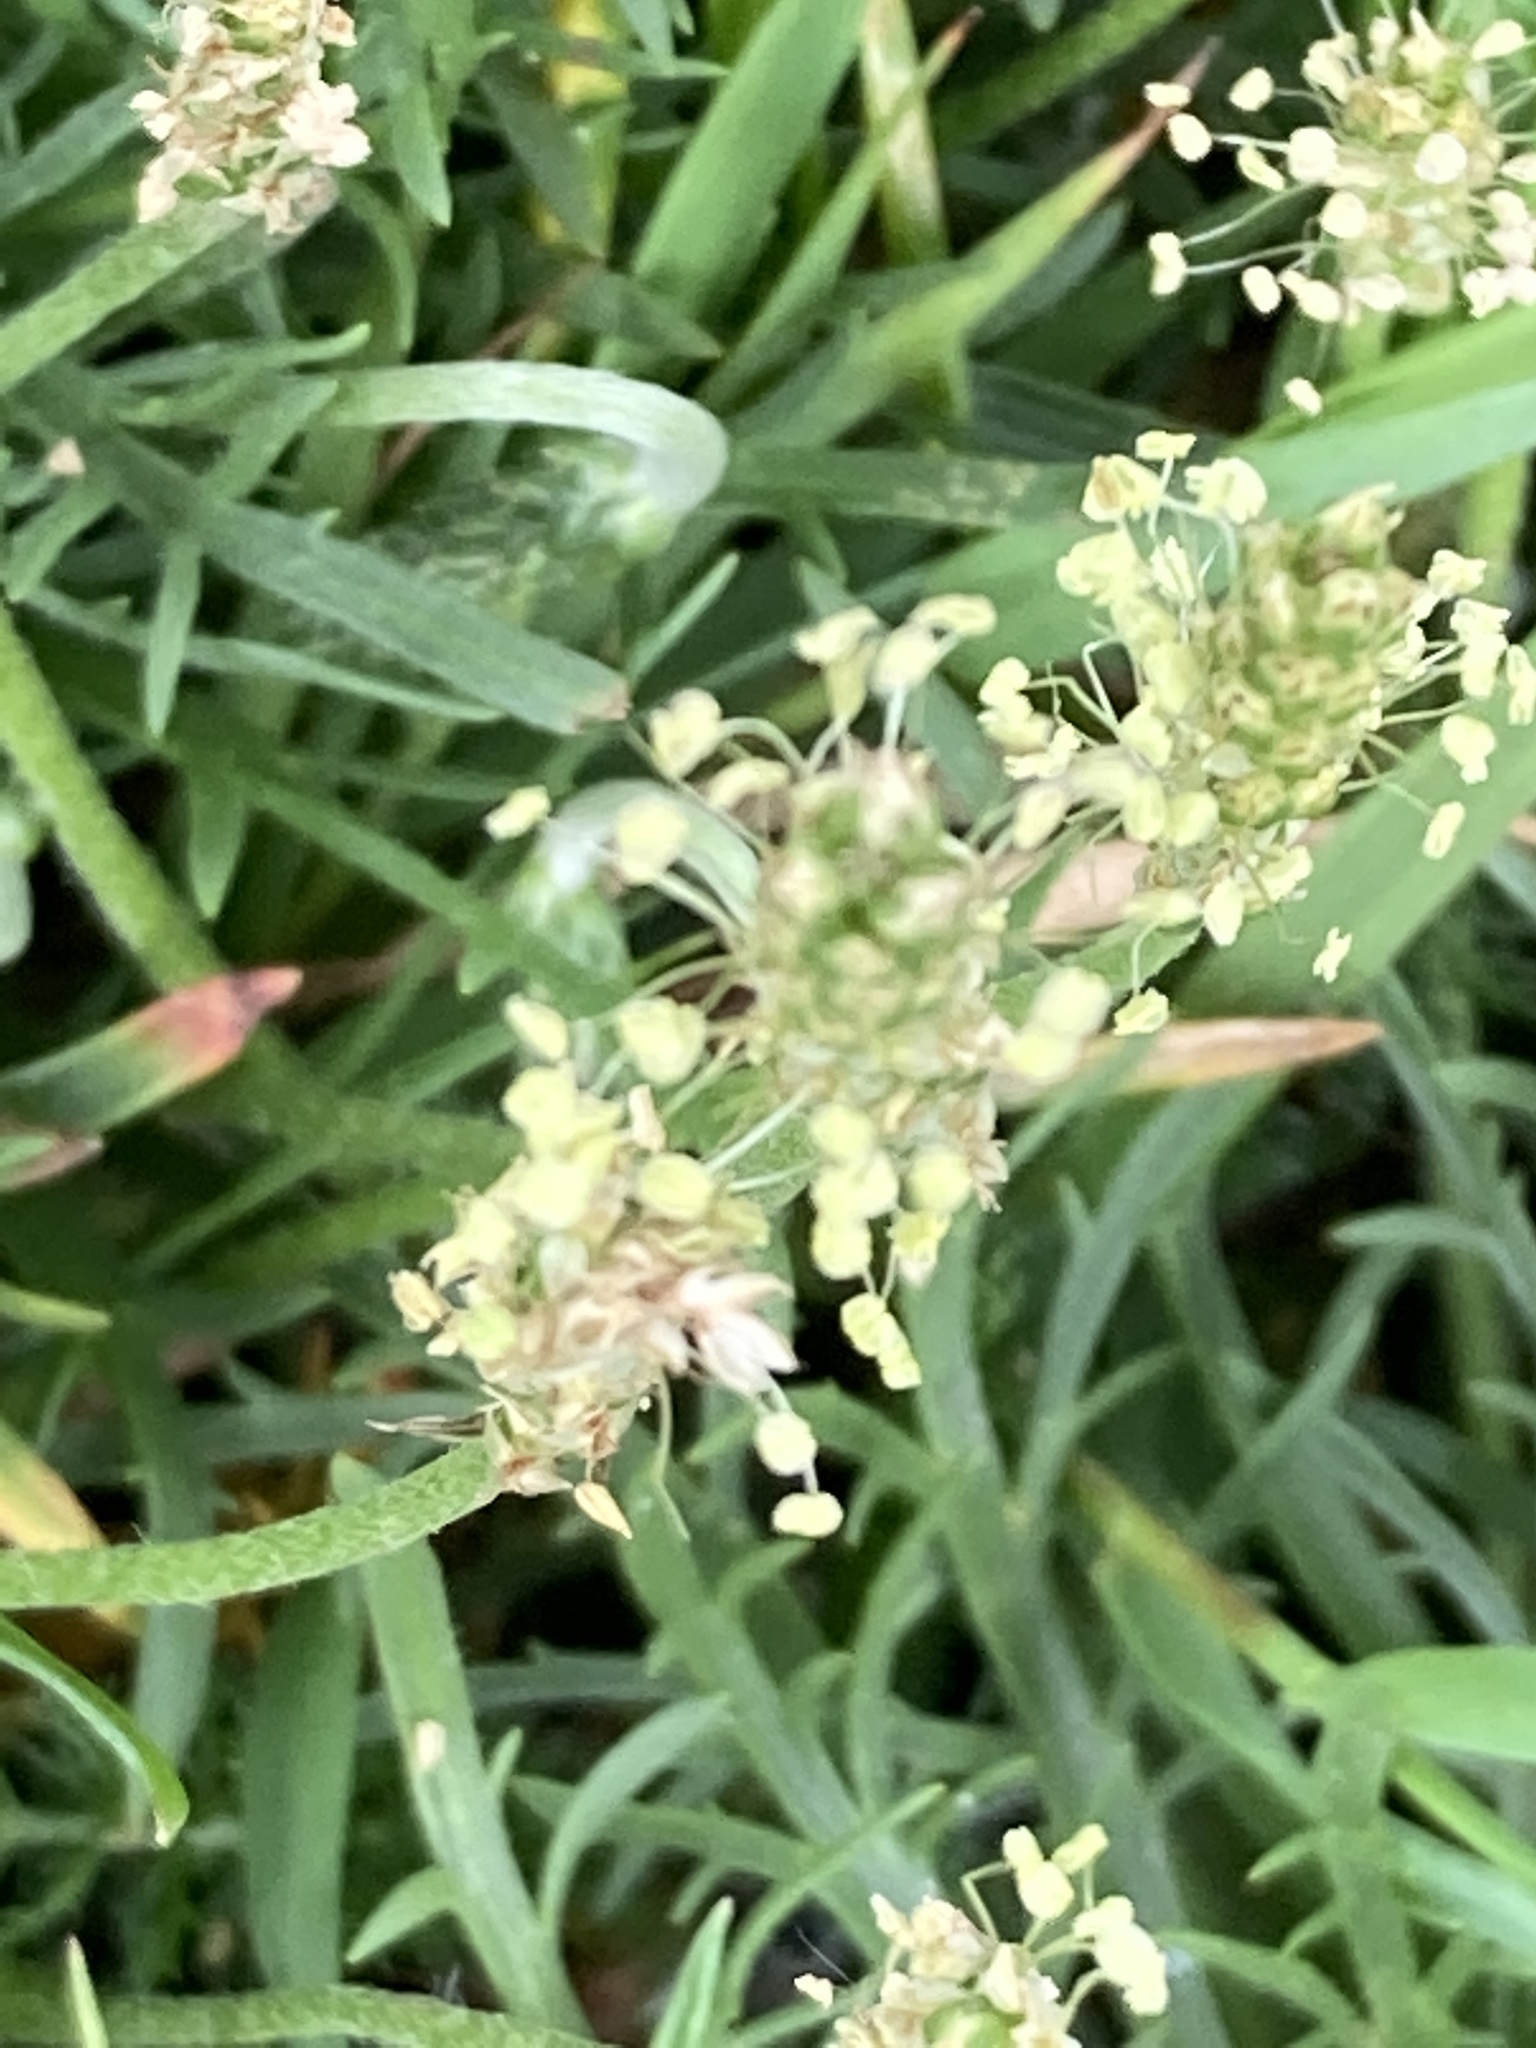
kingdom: Plantae
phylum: Tracheophyta
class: Magnoliopsida
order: Lamiales
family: Plantaginaceae
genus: Plantago
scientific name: Plantago coronopus
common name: Buck's-horn plantain
